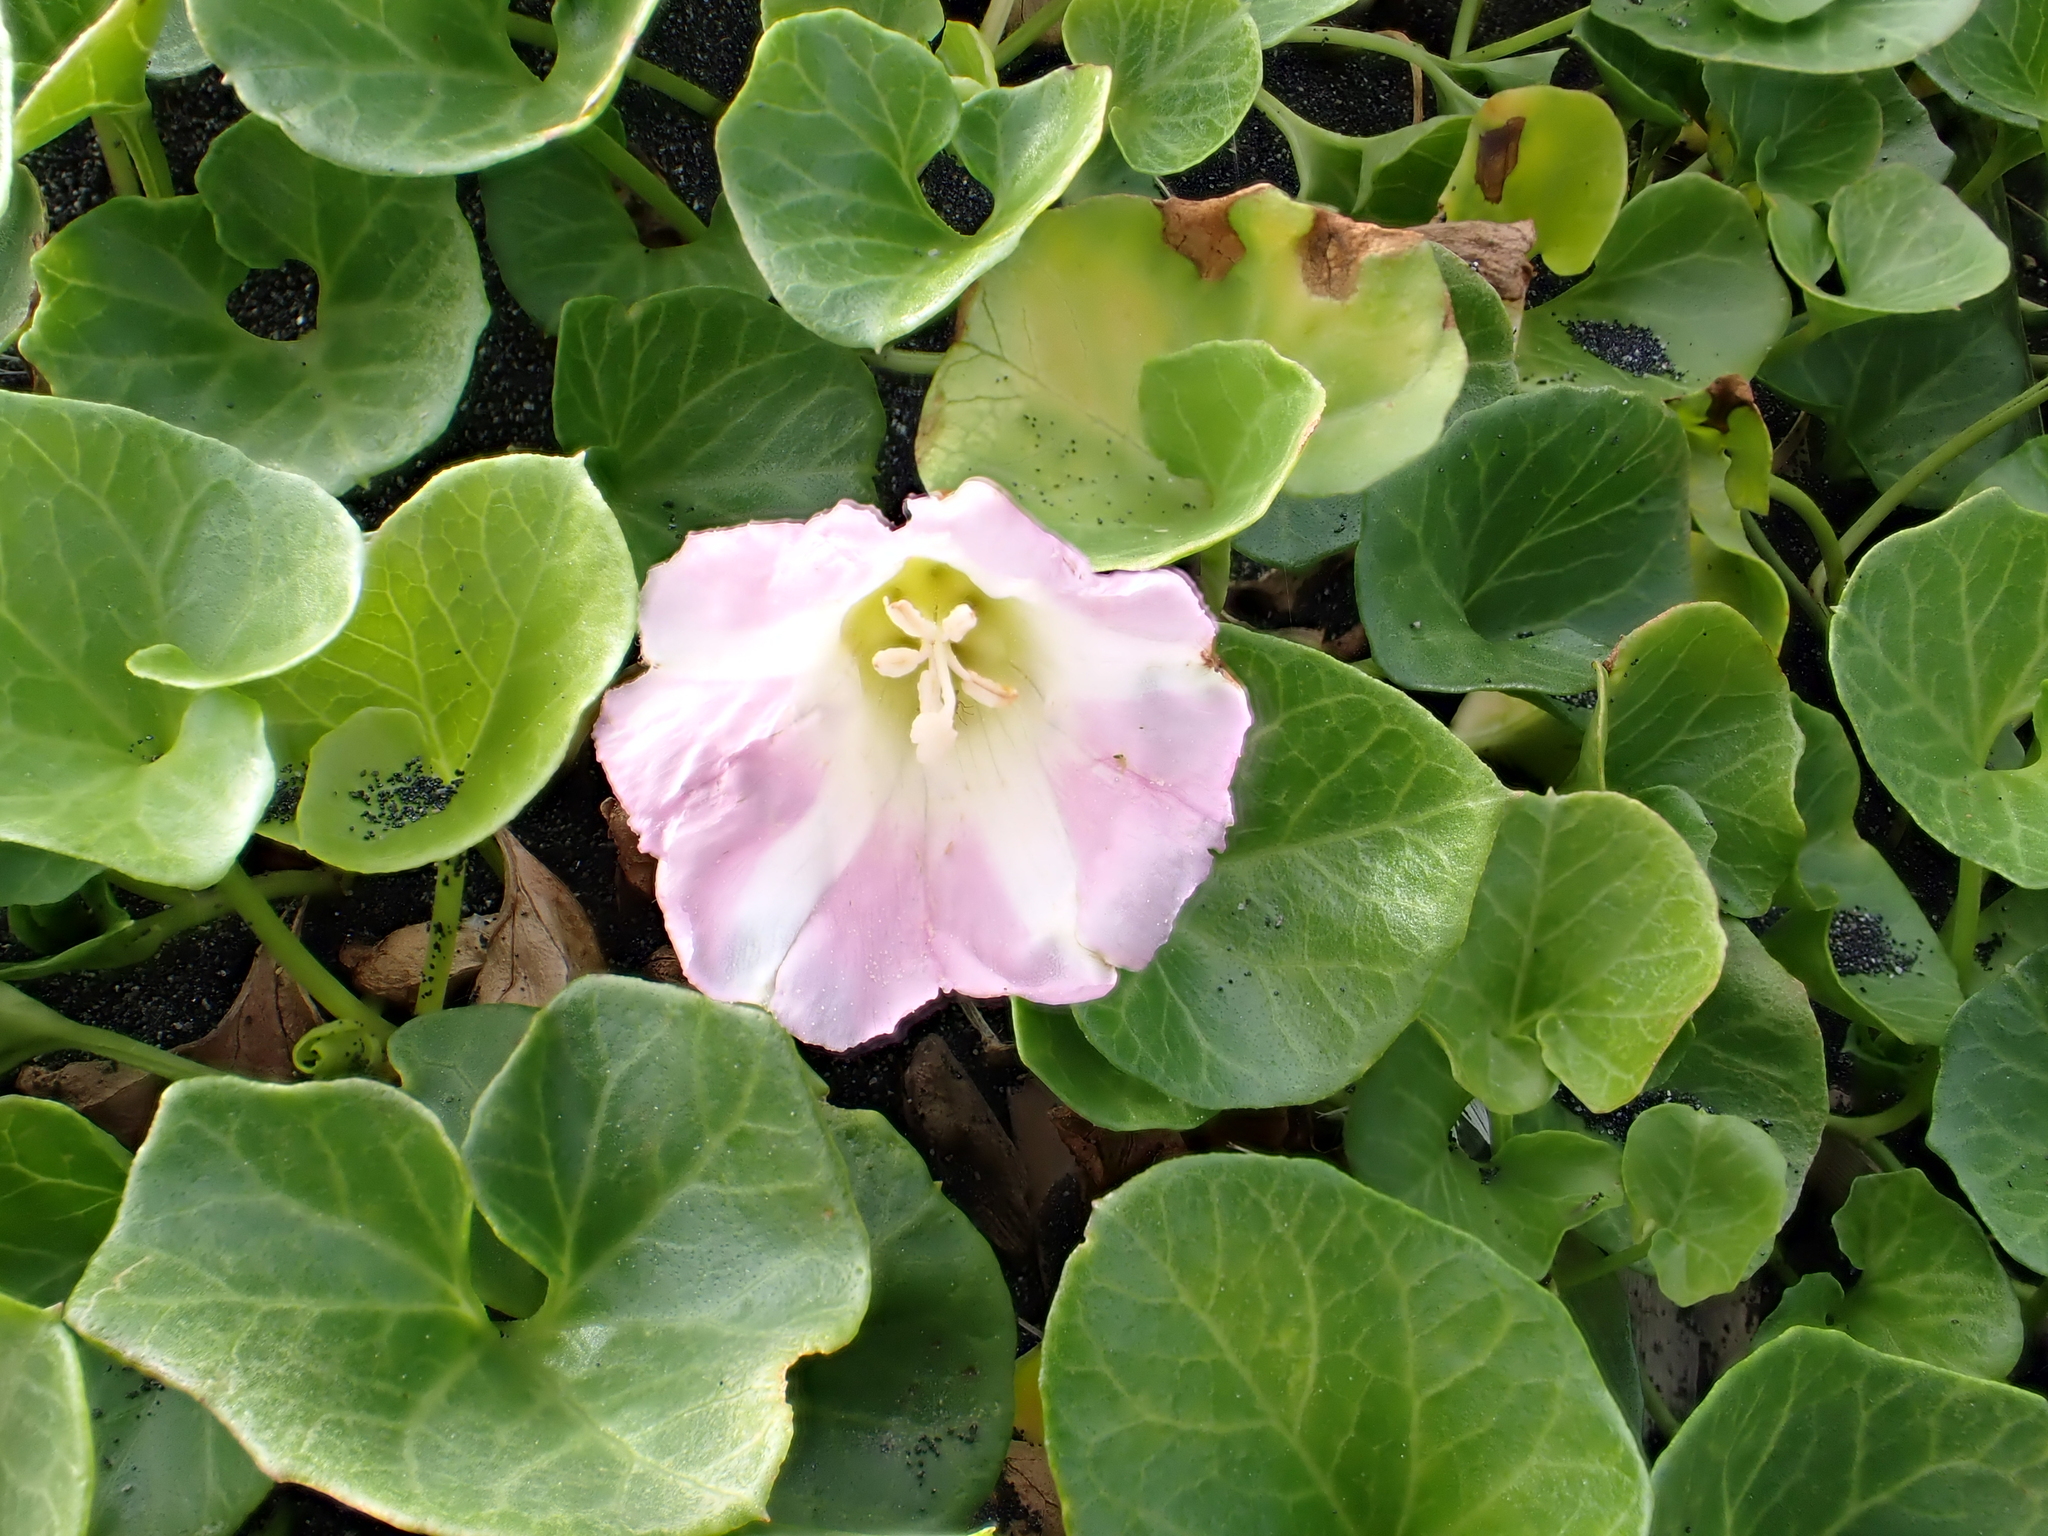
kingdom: Plantae
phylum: Tracheophyta
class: Magnoliopsida
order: Solanales
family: Convolvulaceae
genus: Calystegia
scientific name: Calystegia soldanella
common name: Sea bindweed
